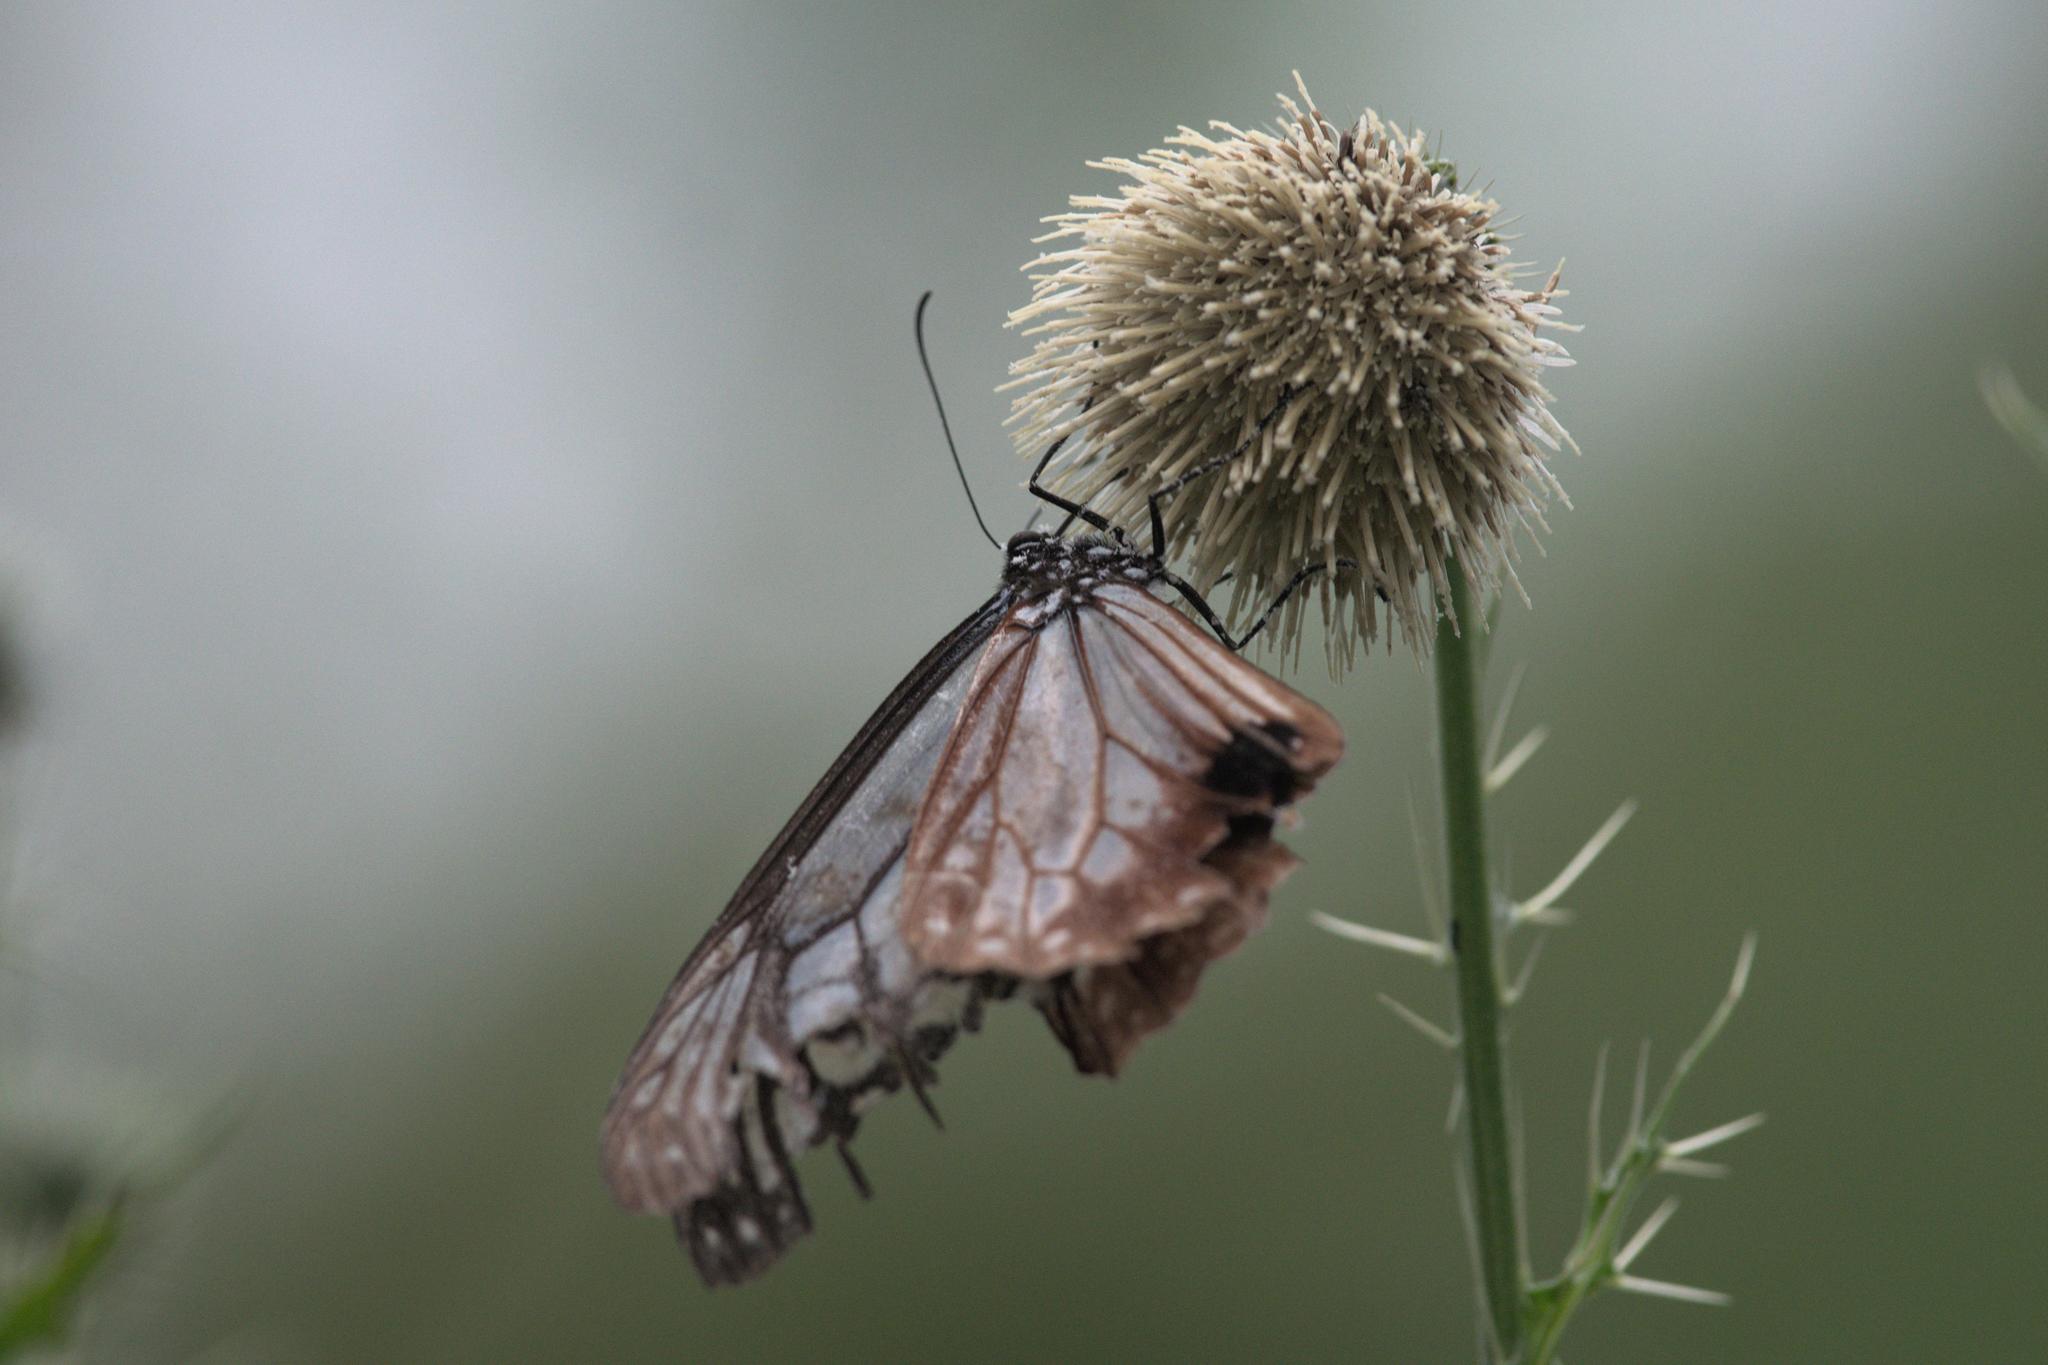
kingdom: Animalia
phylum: Arthropoda
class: Insecta
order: Lepidoptera
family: Nymphalidae
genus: Parantica
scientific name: Parantica sita
